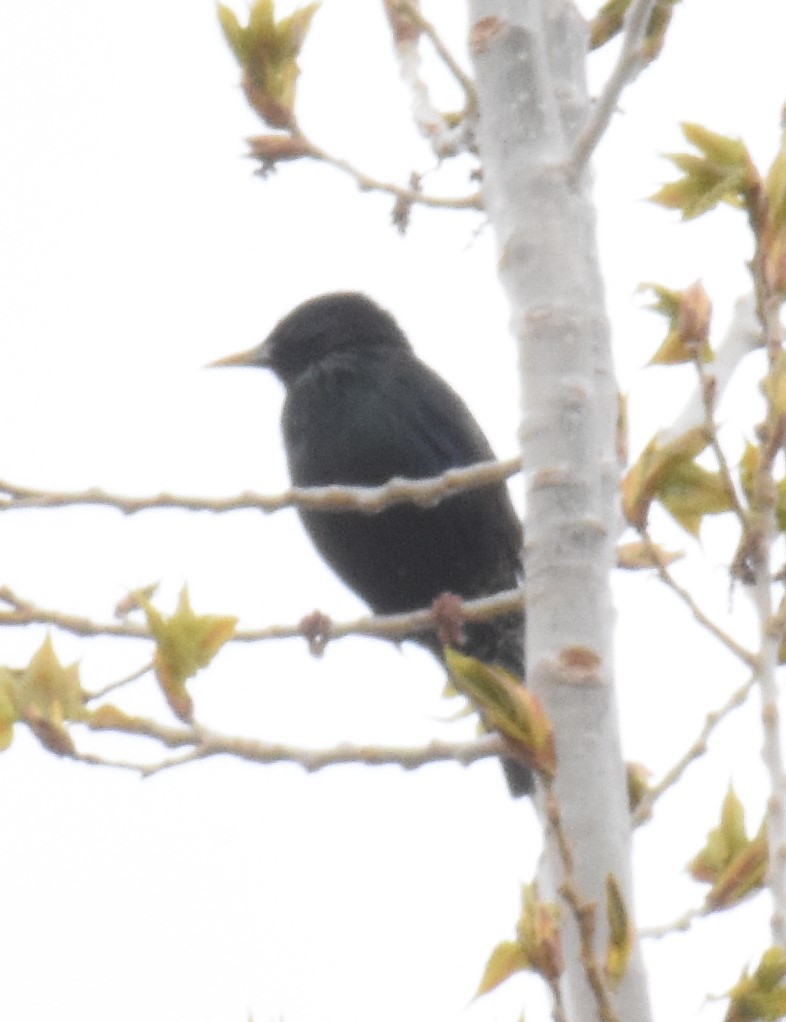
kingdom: Animalia
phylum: Chordata
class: Aves
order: Passeriformes
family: Sturnidae
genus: Sturnus
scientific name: Sturnus vulgaris
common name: Common starling
